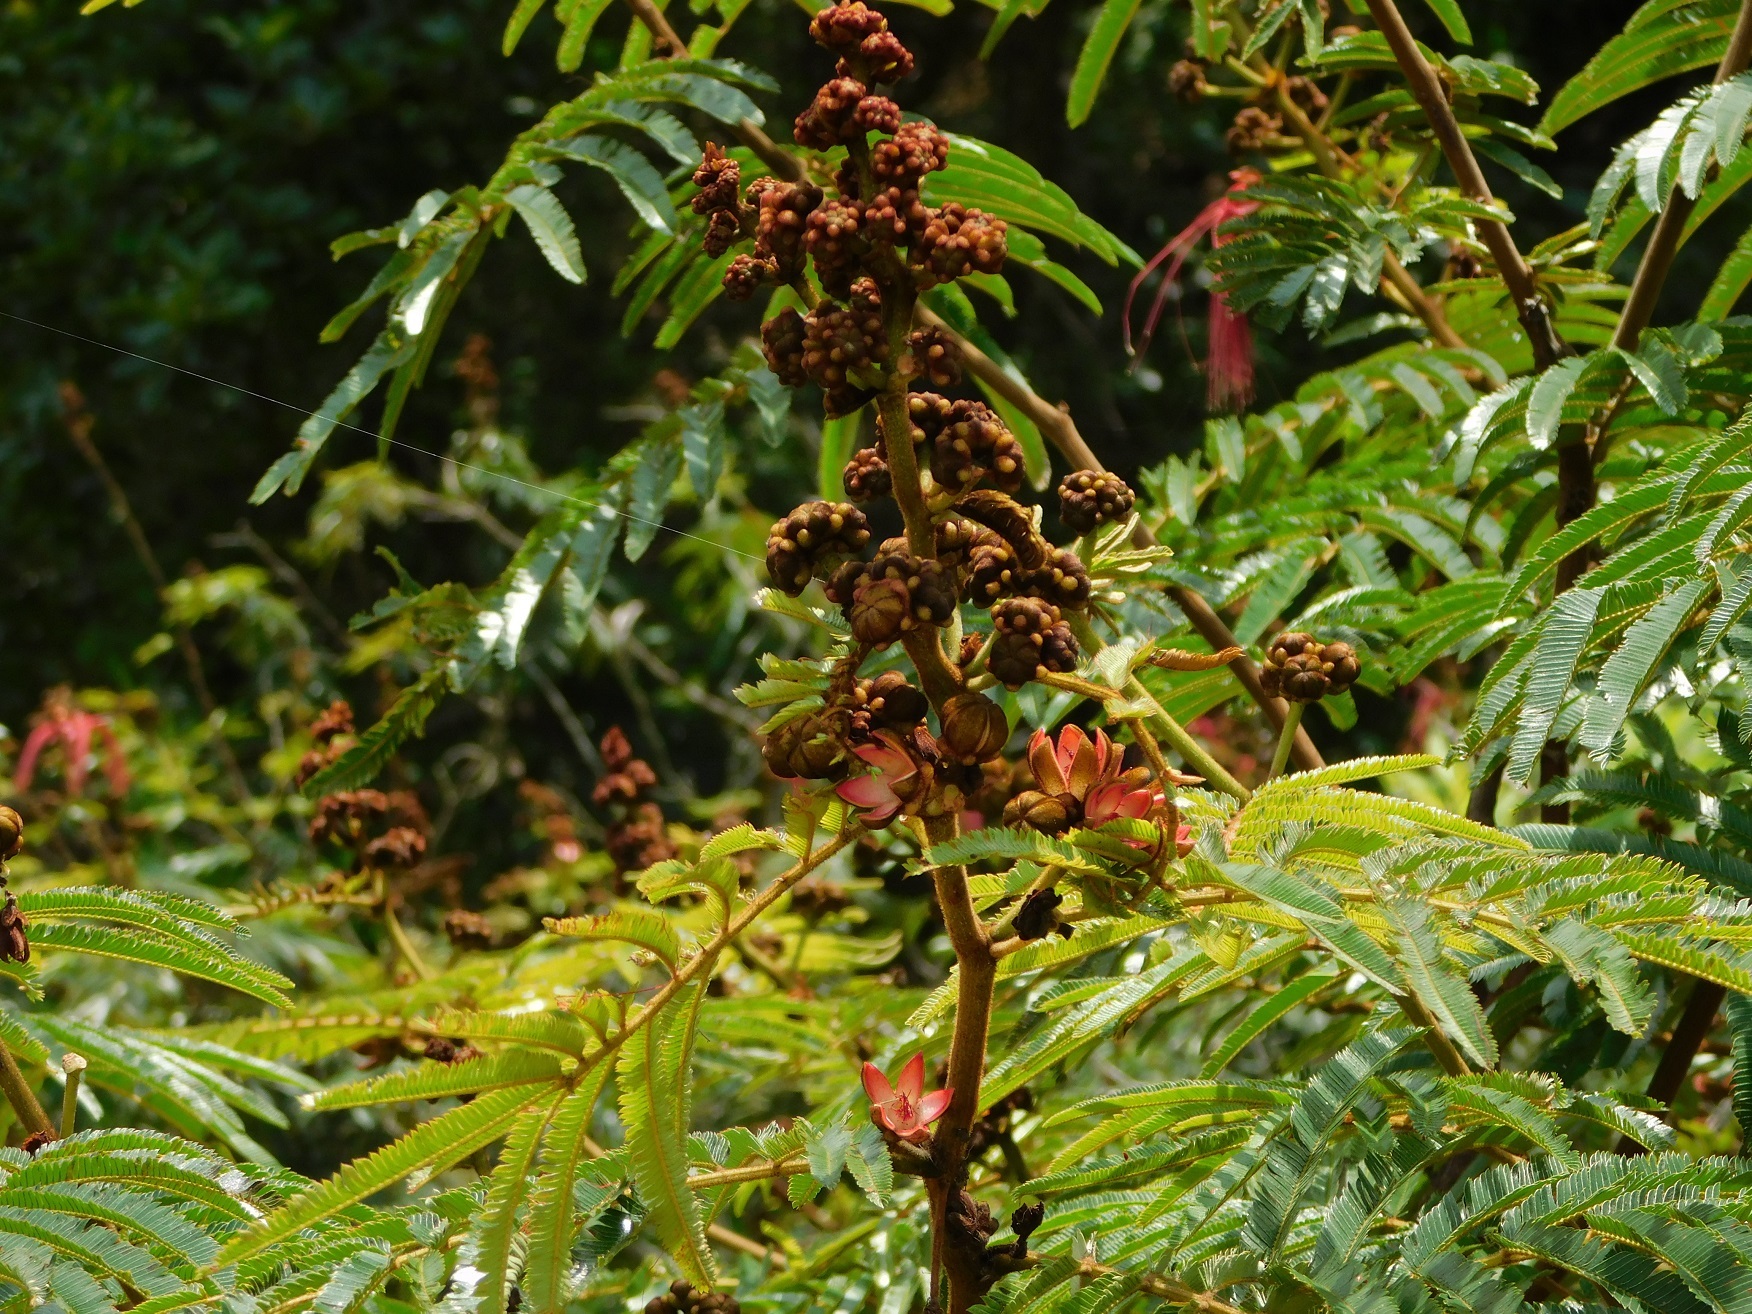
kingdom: Plantae
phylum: Tracheophyta
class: Magnoliopsida
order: Fabales
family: Fabaceae
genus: Calliandra
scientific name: Calliandra houstoniana
